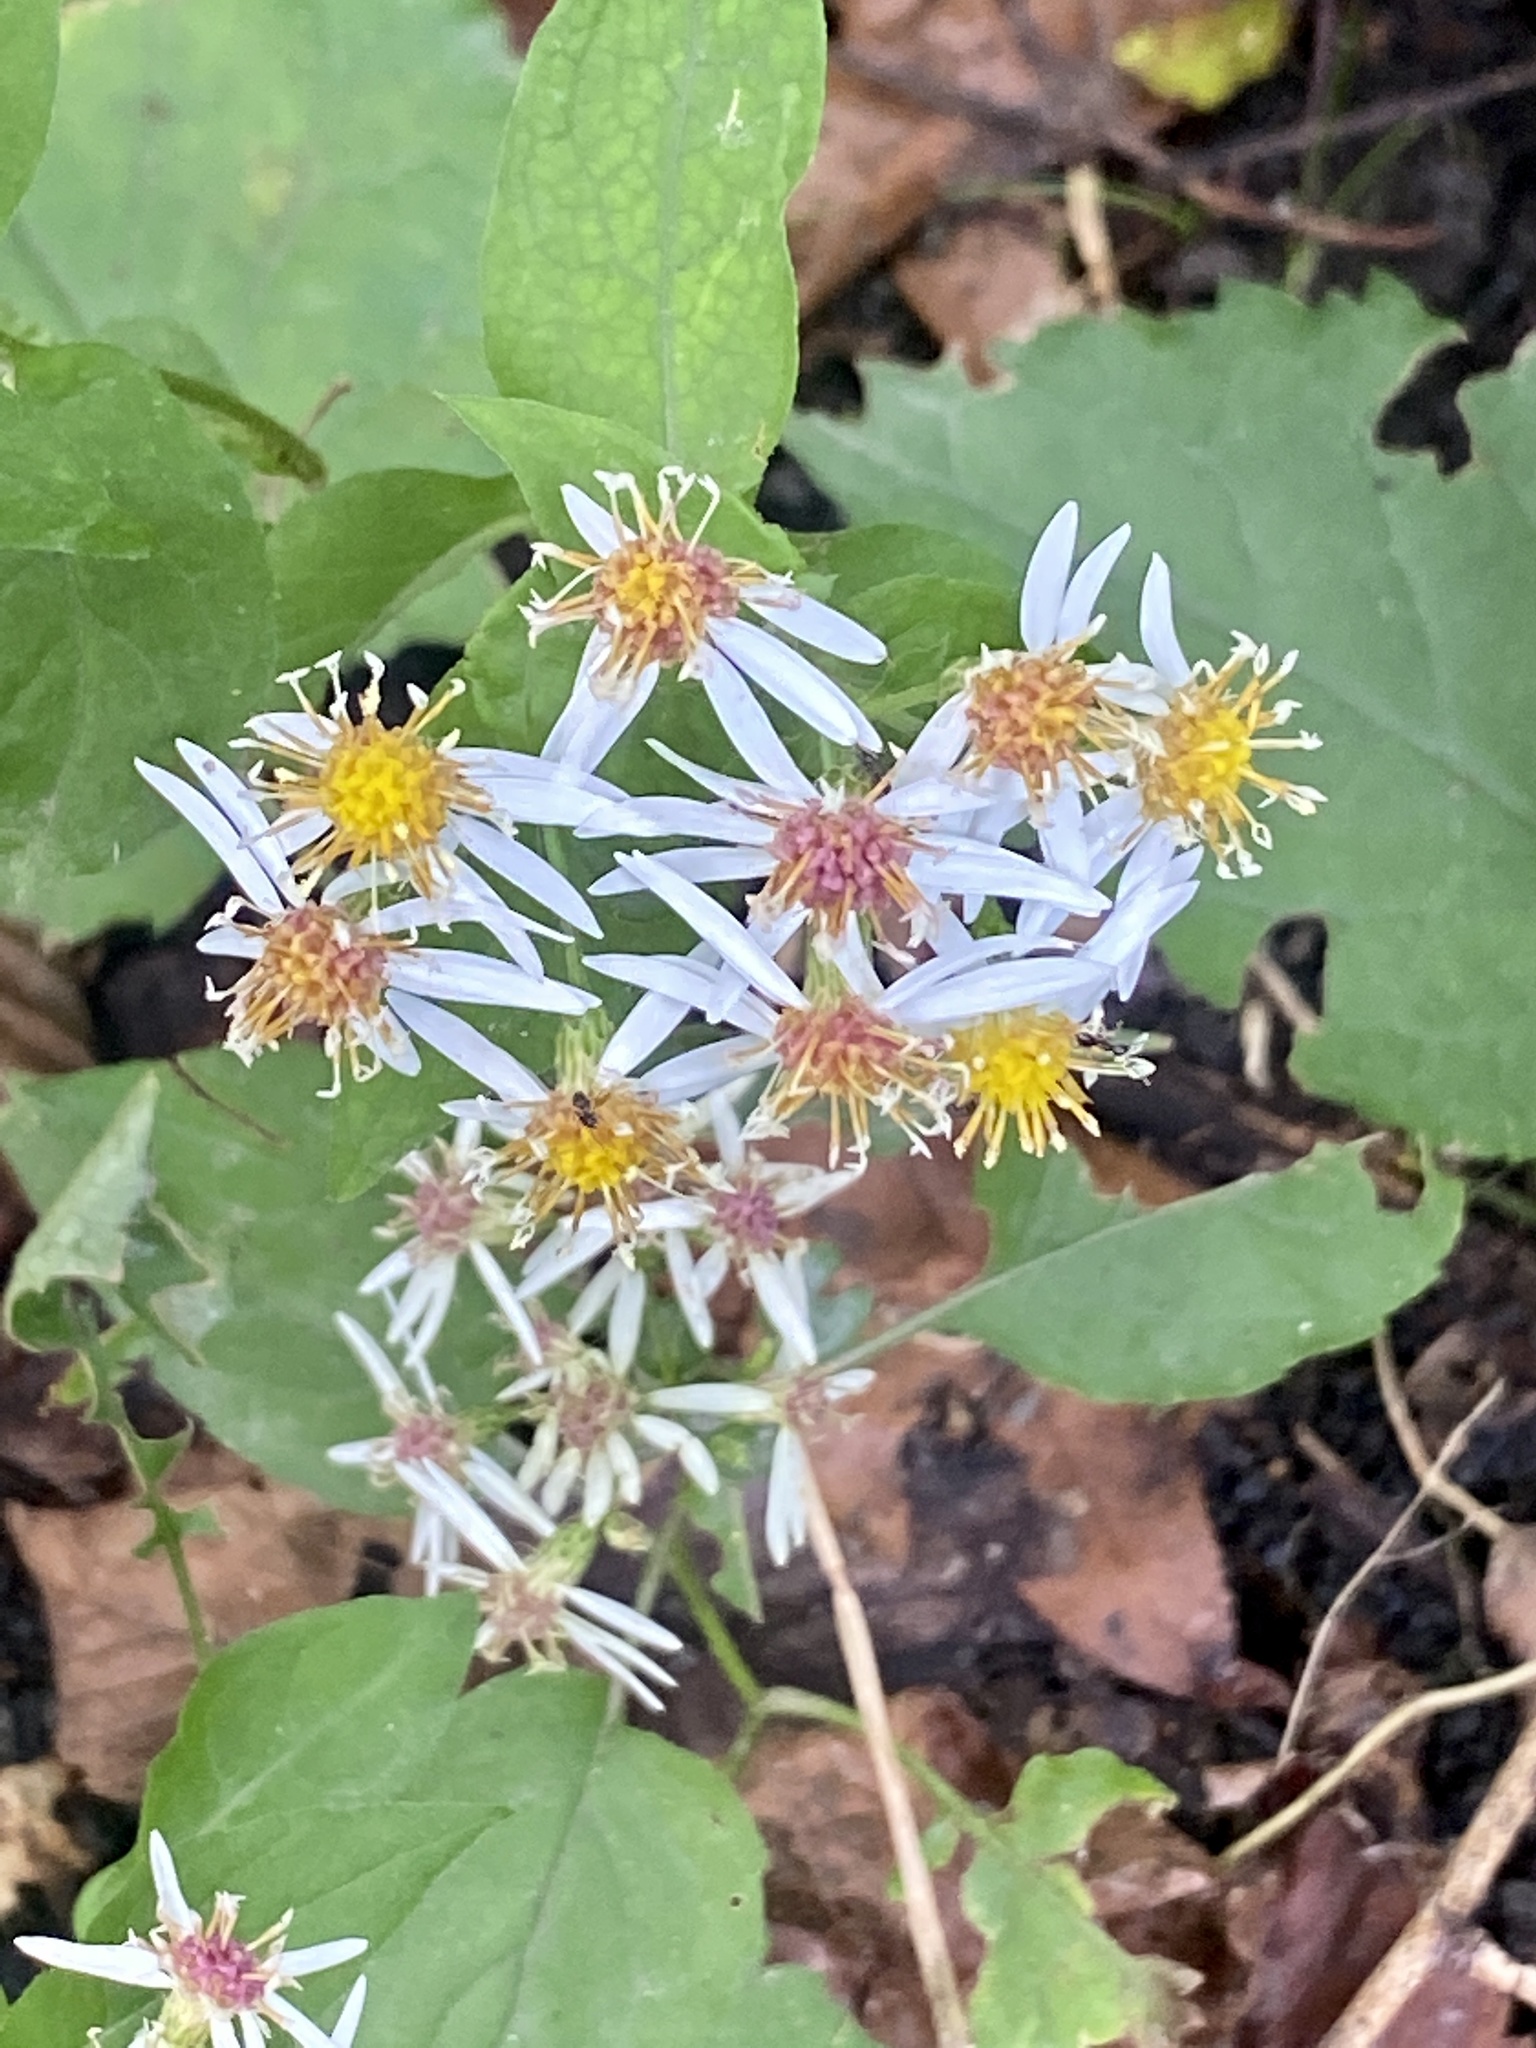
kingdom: Plantae
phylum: Tracheophyta
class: Magnoliopsida
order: Asterales
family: Asteraceae
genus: Eurybia
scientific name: Eurybia divaricata
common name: White wood aster
